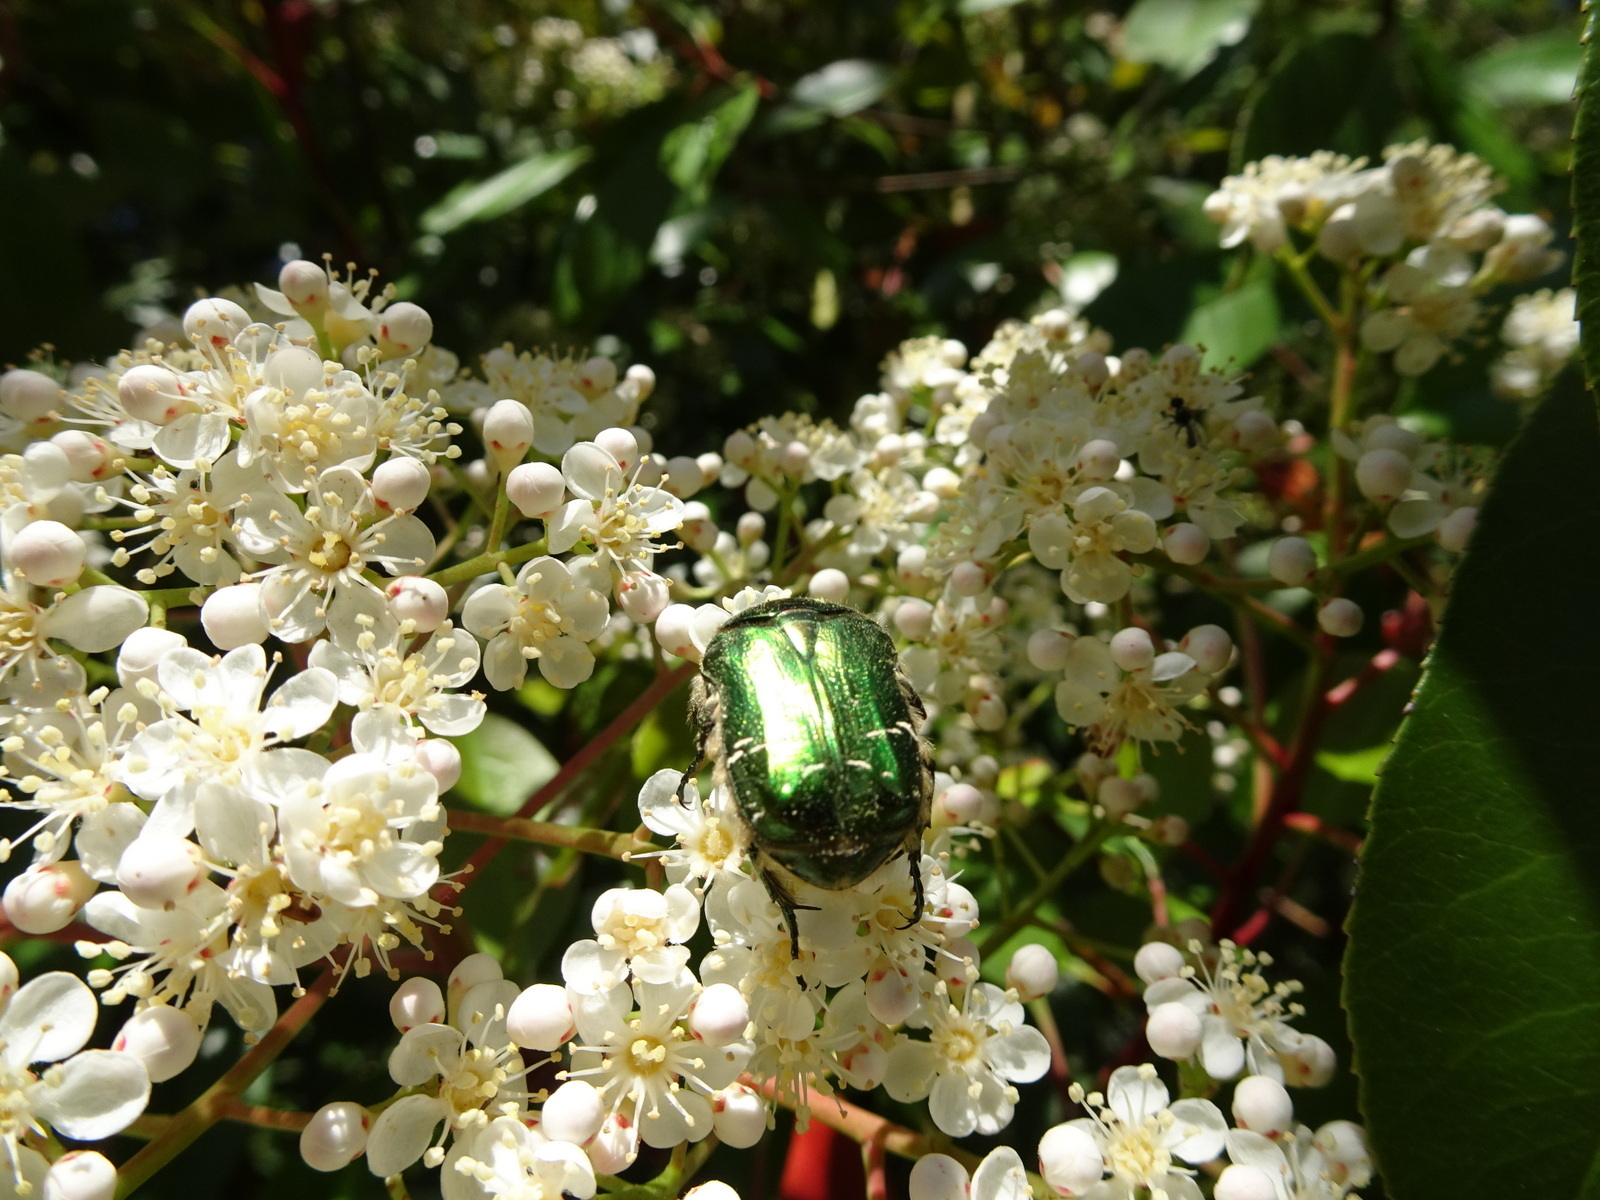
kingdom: Animalia
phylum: Arthropoda
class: Insecta
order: Coleoptera
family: Scarabaeidae
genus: Cetonia
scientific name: Cetonia aurata
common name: Rose chafer
